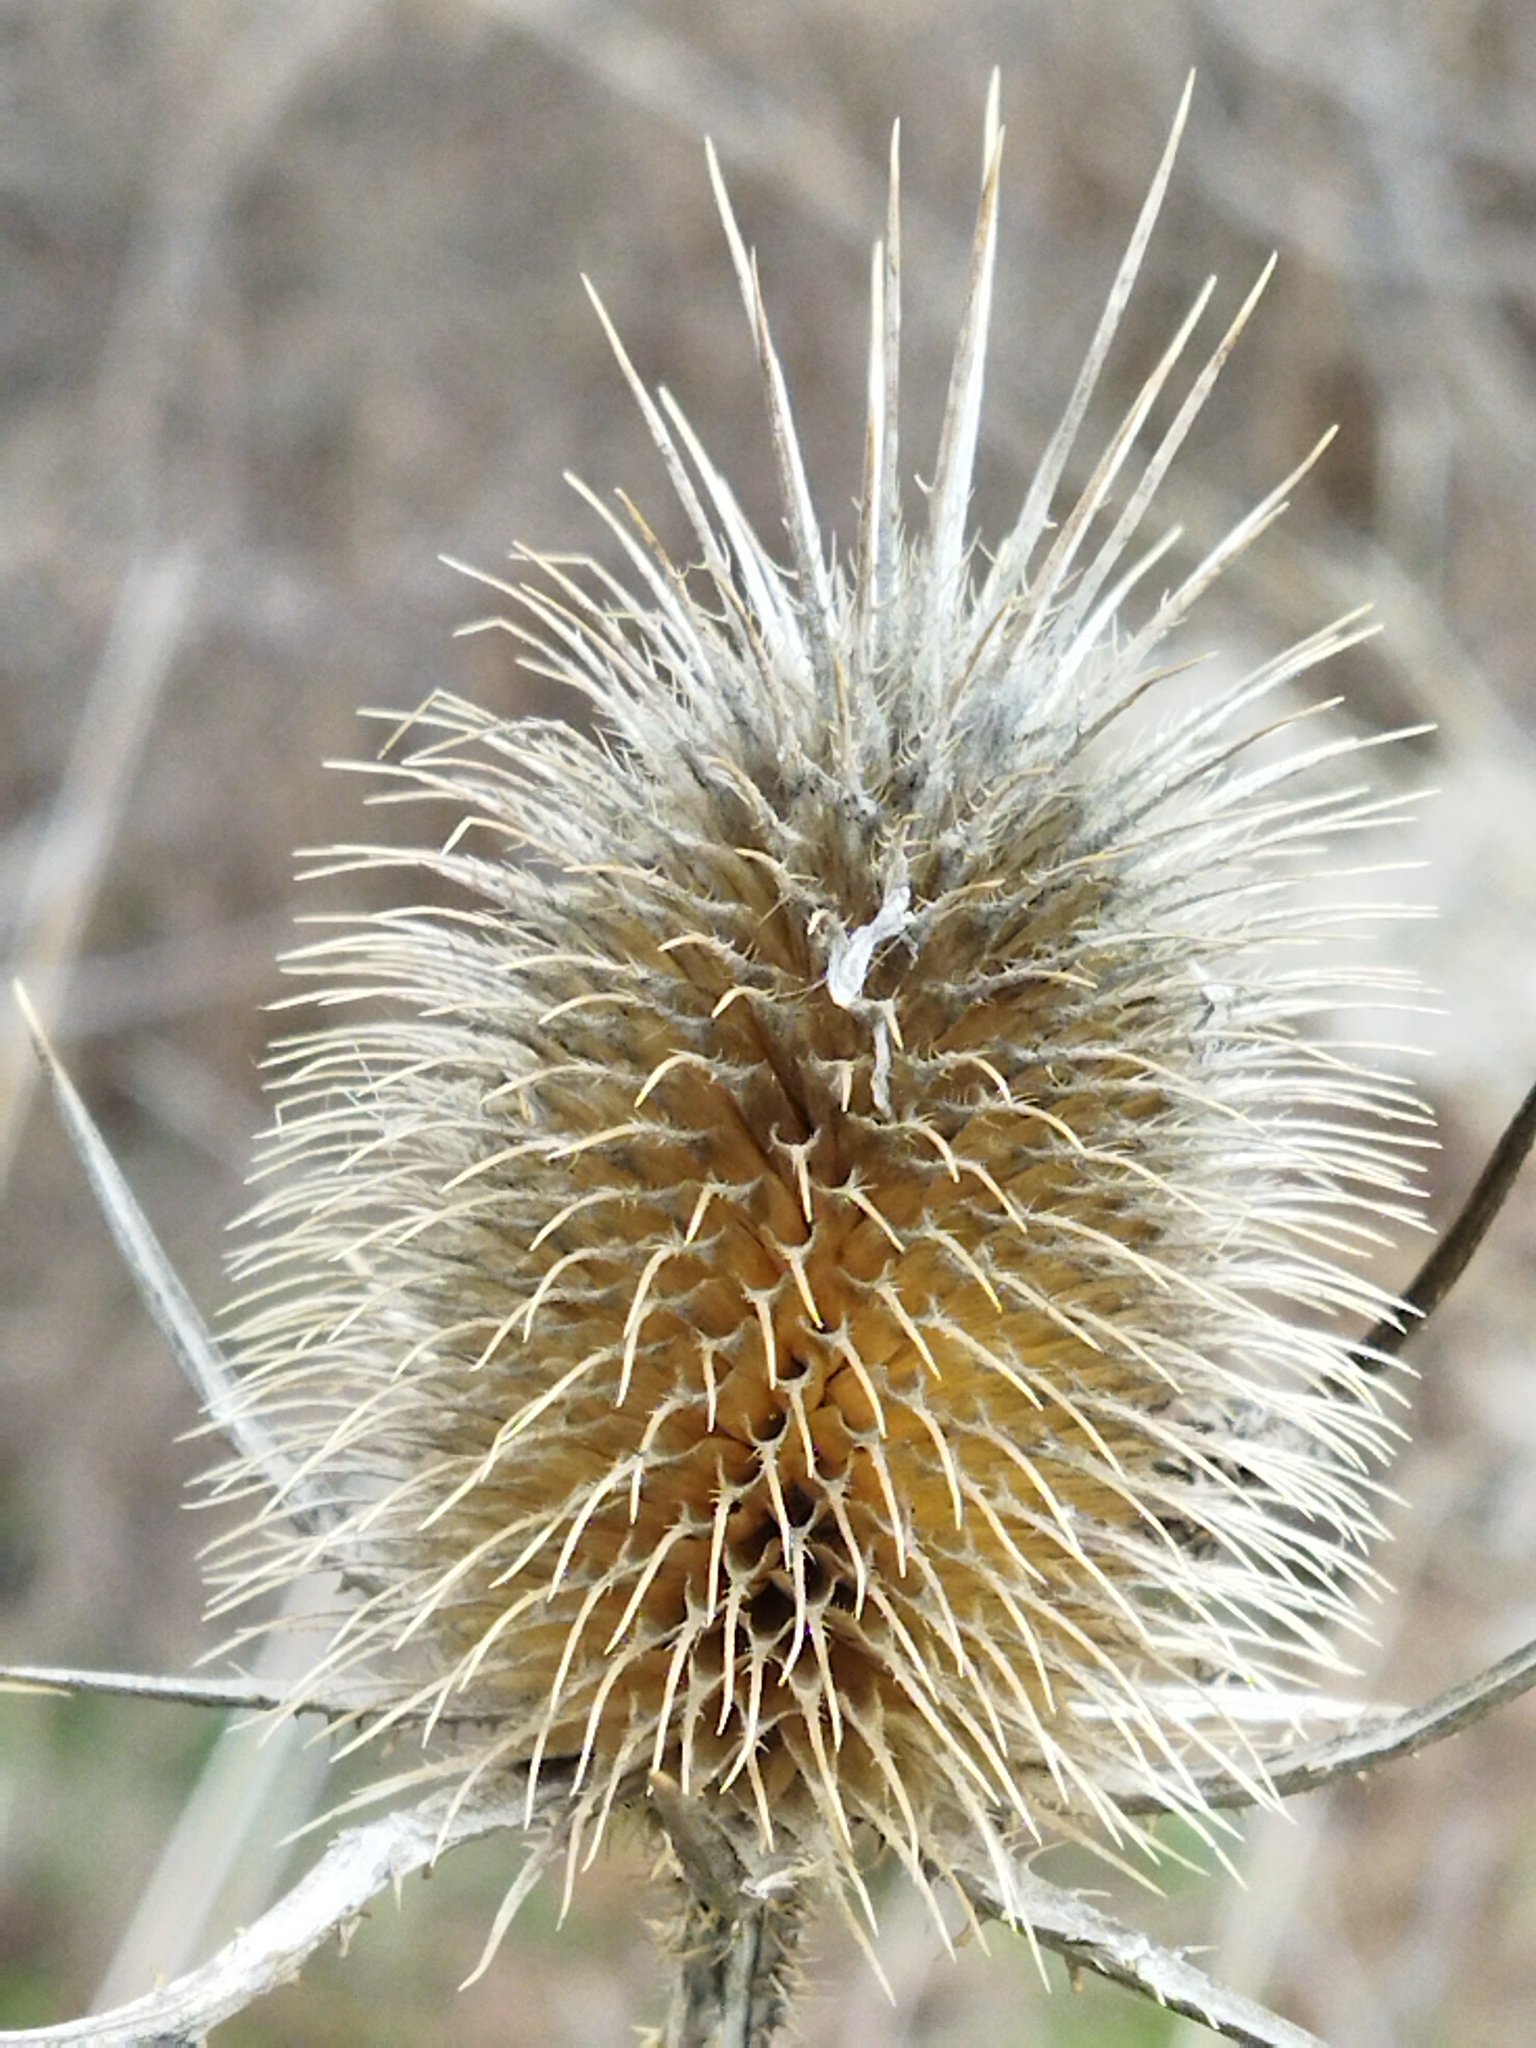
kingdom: Plantae
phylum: Tracheophyta
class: Magnoliopsida
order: Dipsacales
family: Caprifoliaceae
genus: Dipsacus
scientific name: Dipsacus laciniatus
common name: Cut-leaved teasel
